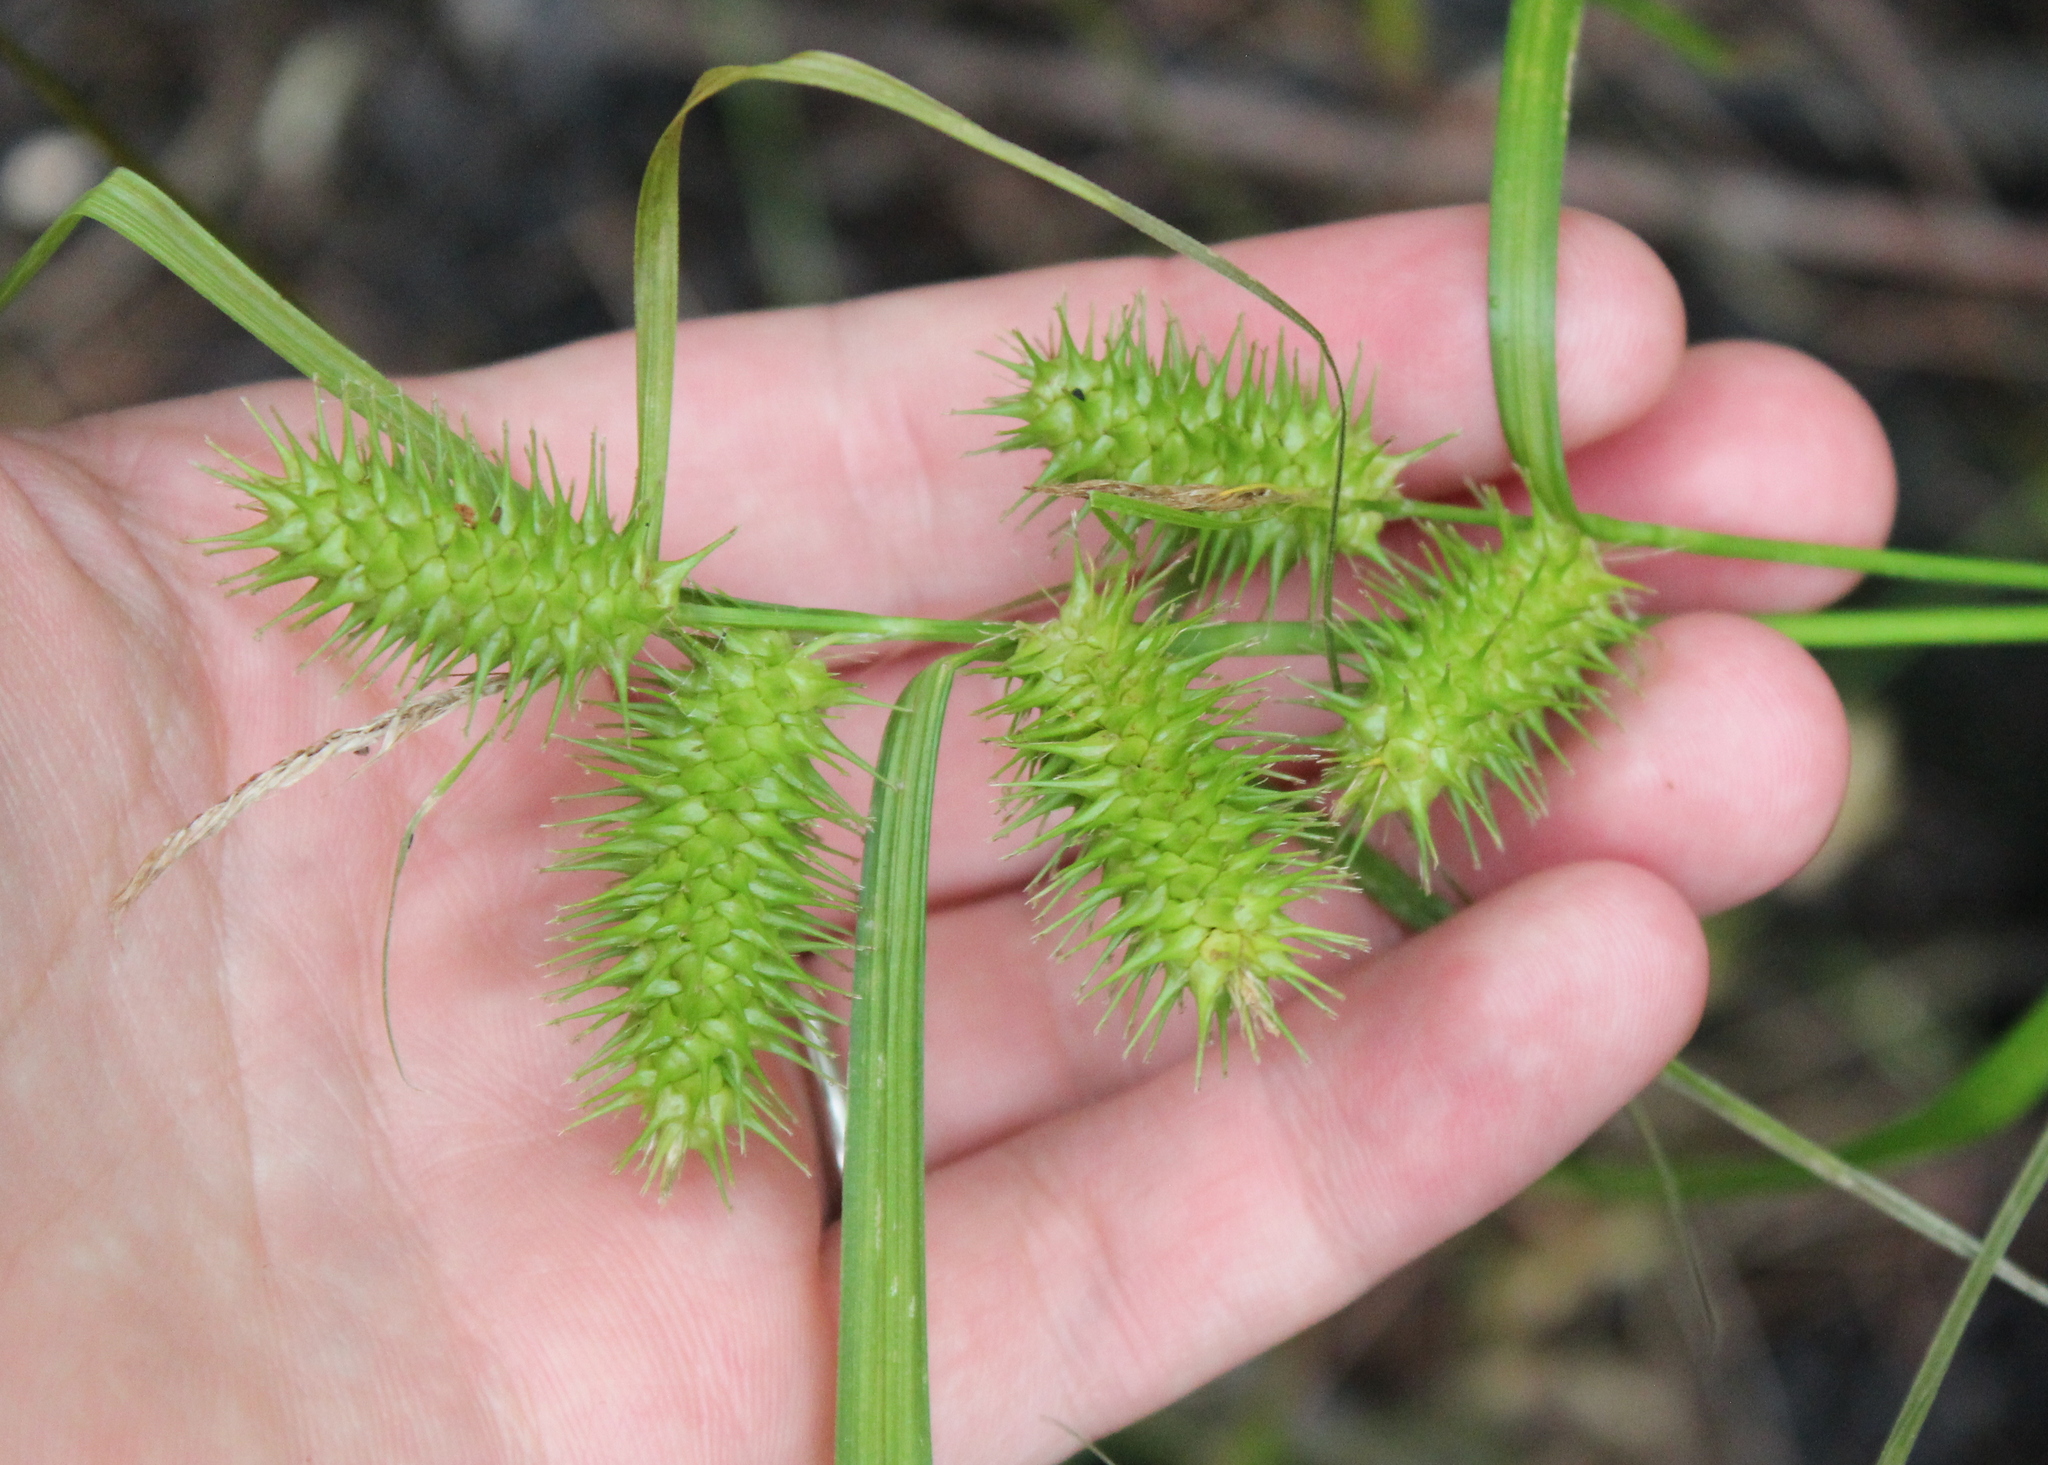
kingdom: Plantae
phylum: Tracheophyta
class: Liliopsida
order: Poales
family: Cyperaceae
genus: Carex
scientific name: Carex lurida
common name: Sallow sedge
